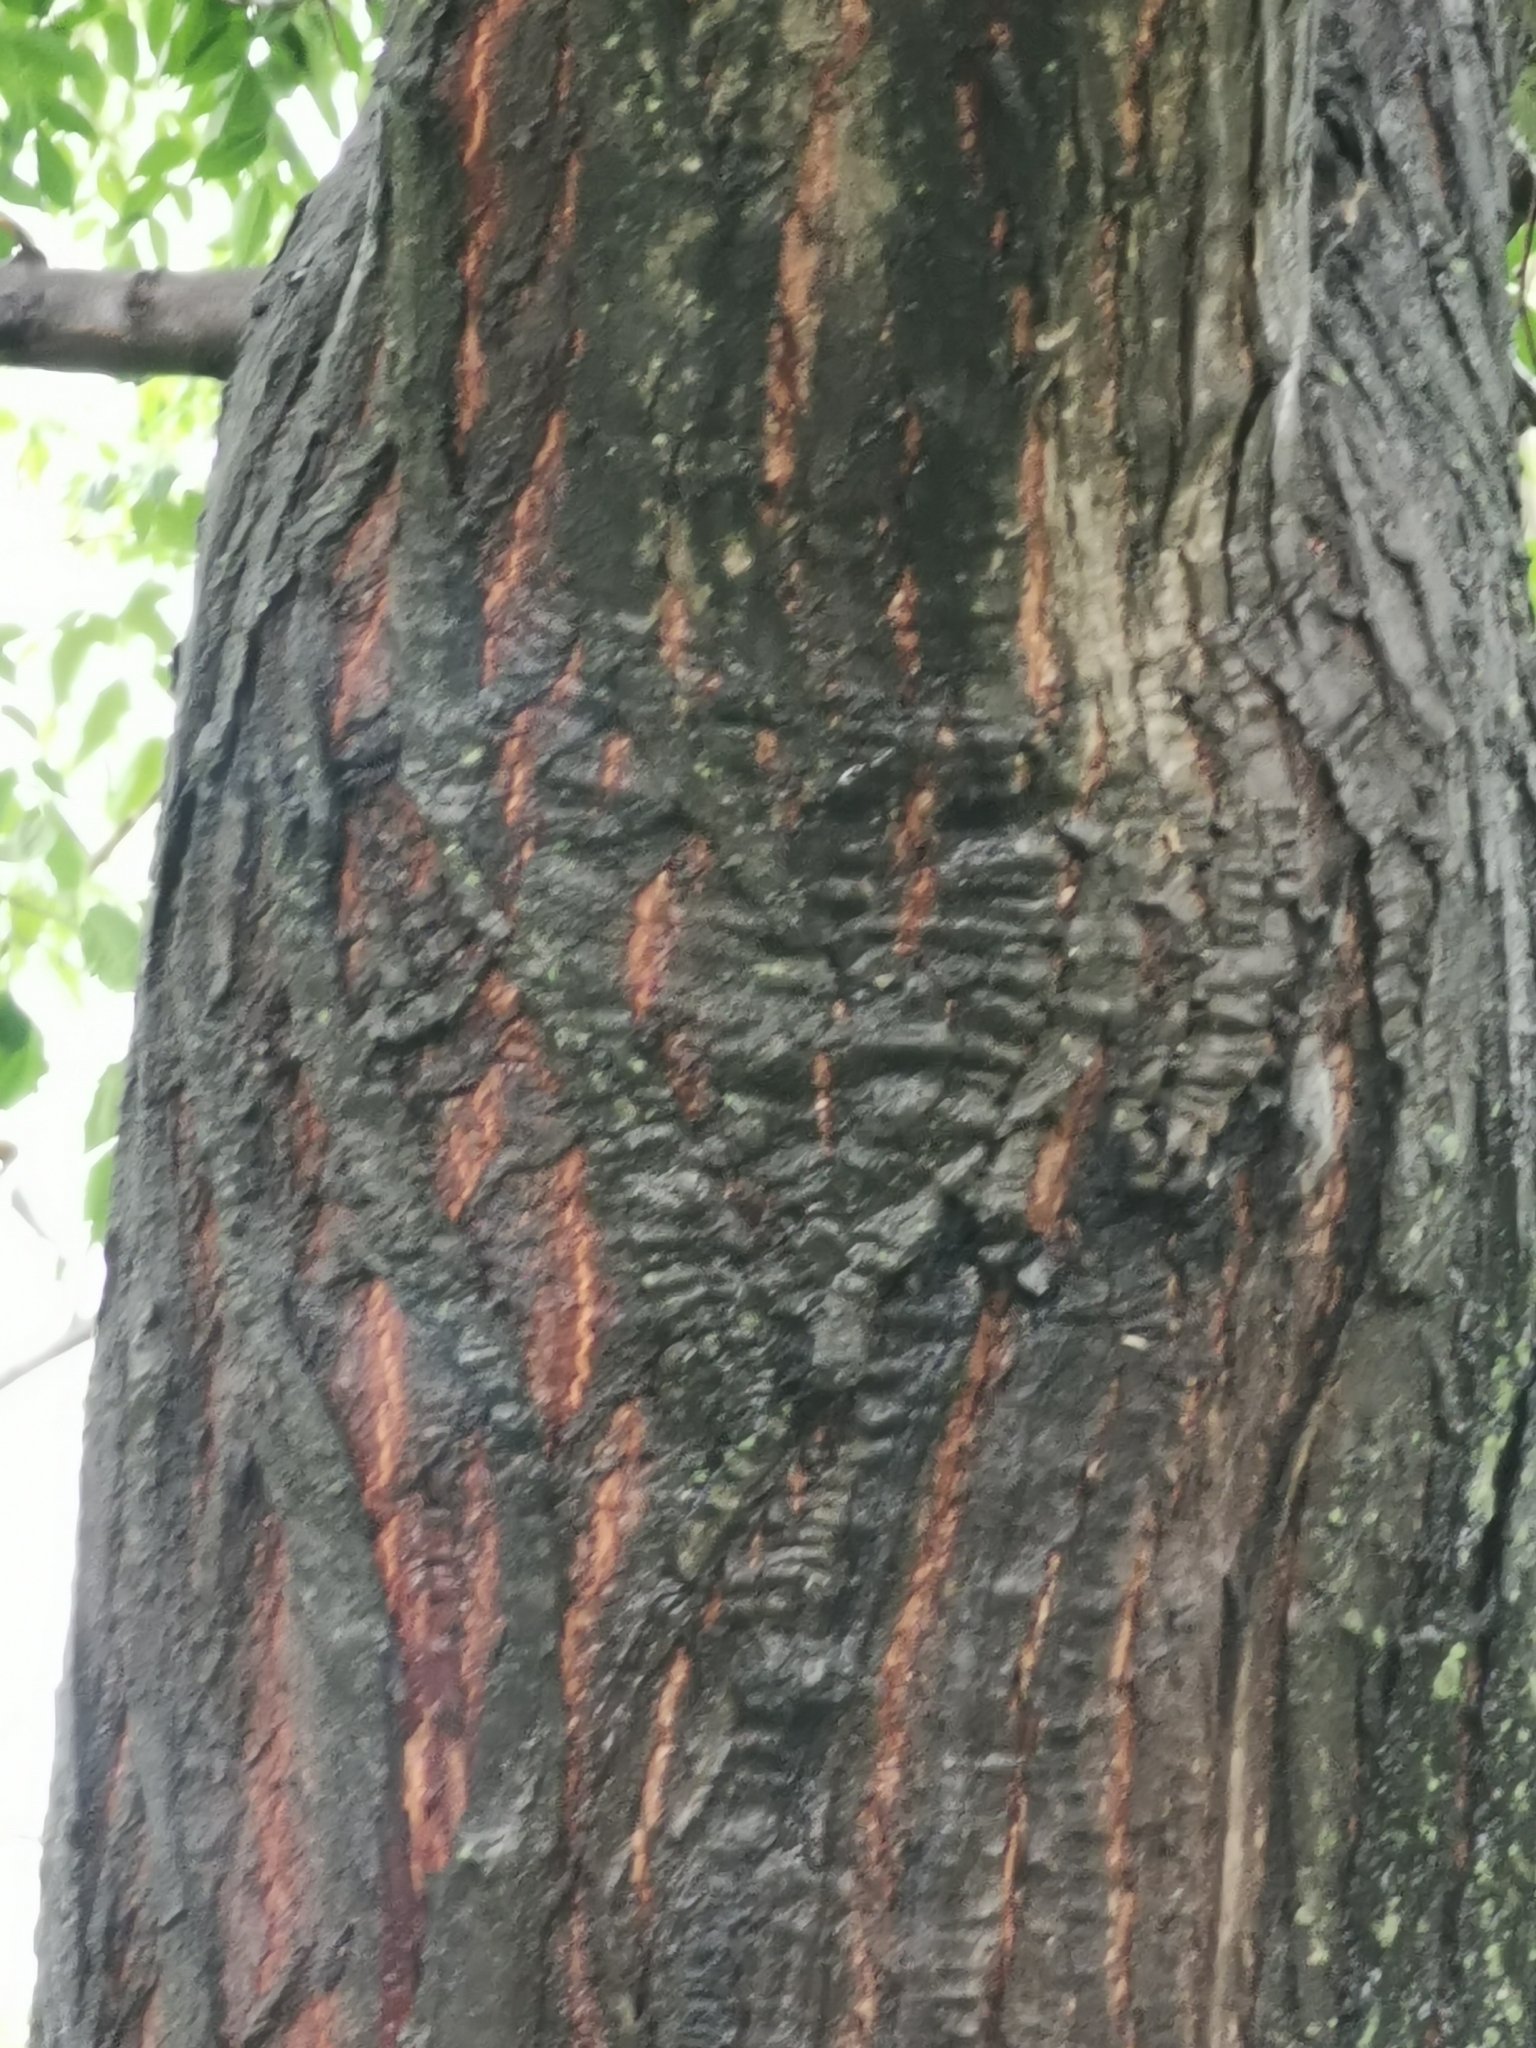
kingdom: Plantae
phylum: Tracheophyta
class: Magnoliopsida
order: Sapindales
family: Meliaceae
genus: Melia
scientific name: Melia azedarach
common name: Chinaberrytree
